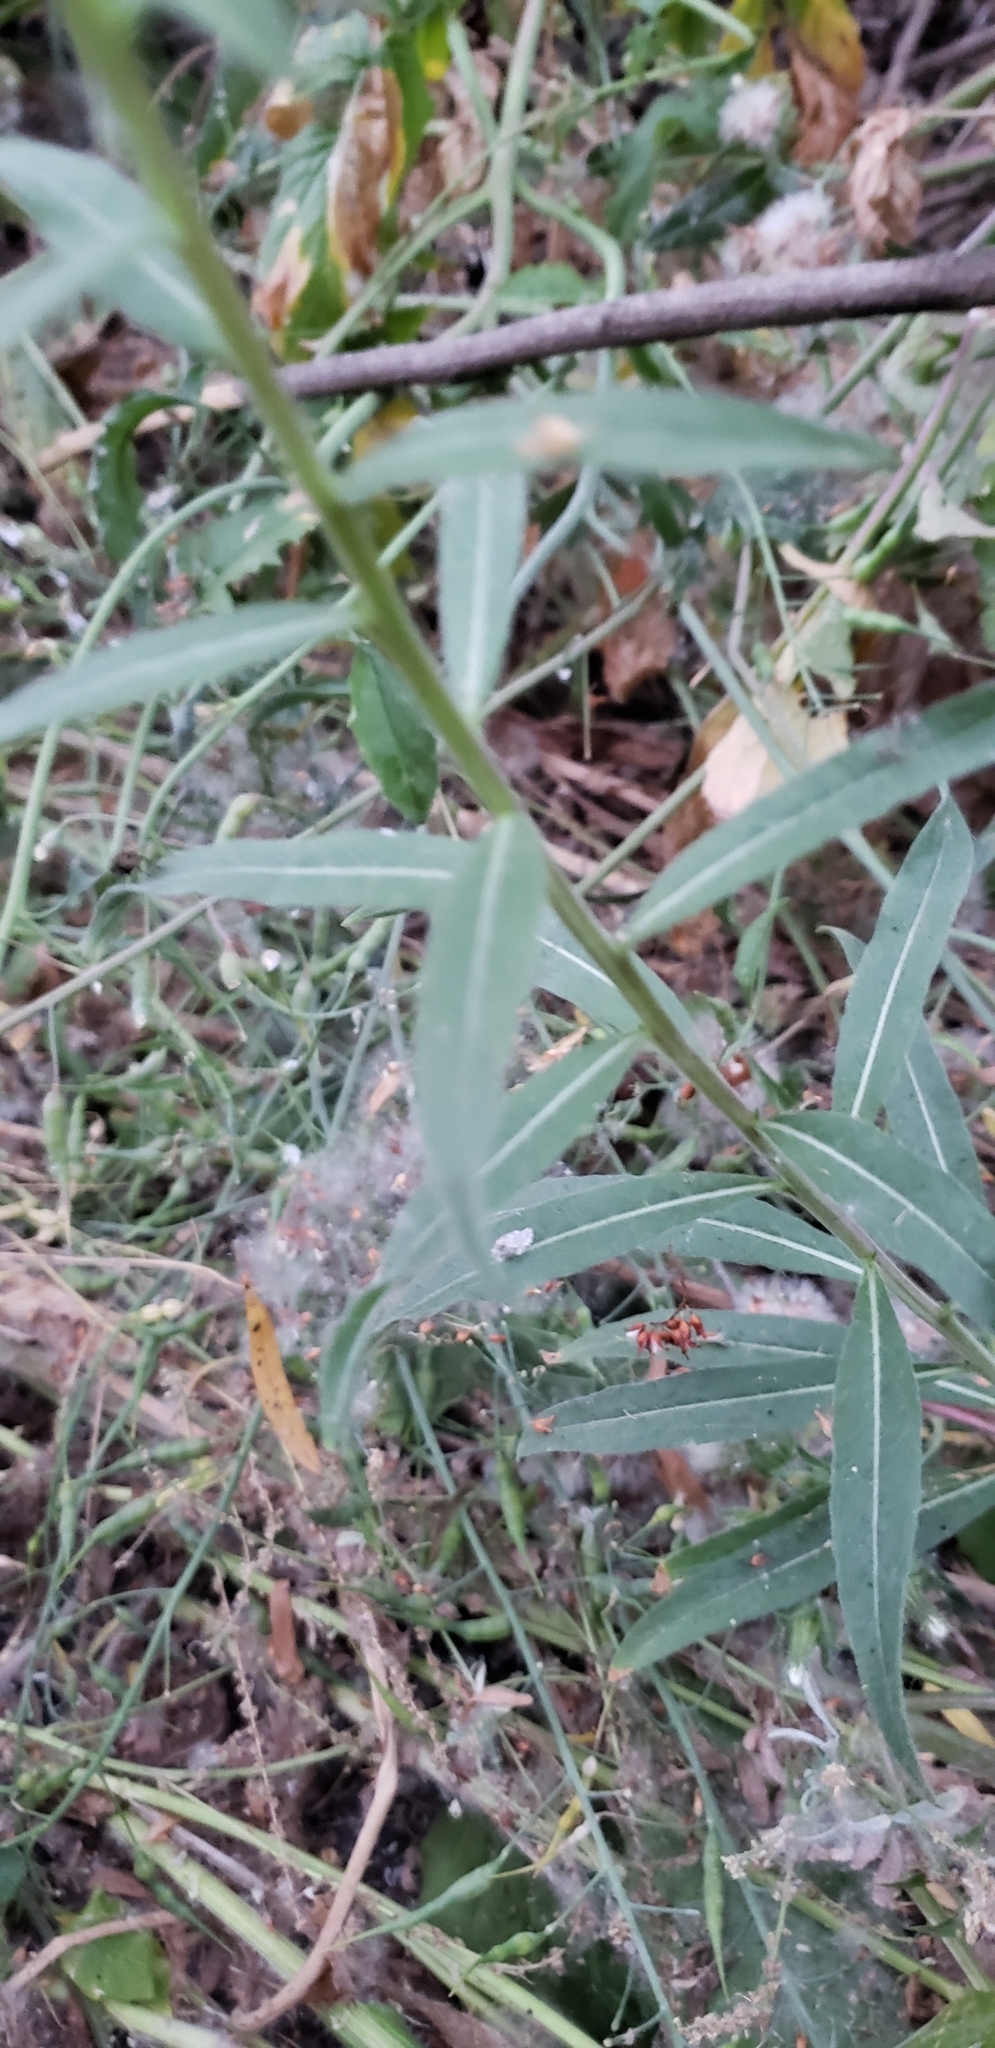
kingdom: Plantae
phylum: Tracheophyta
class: Magnoliopsida
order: Myrtales
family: Onagraceae
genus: Oenothera
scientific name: Oenothera elata
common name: Hooker's evening-primrose
